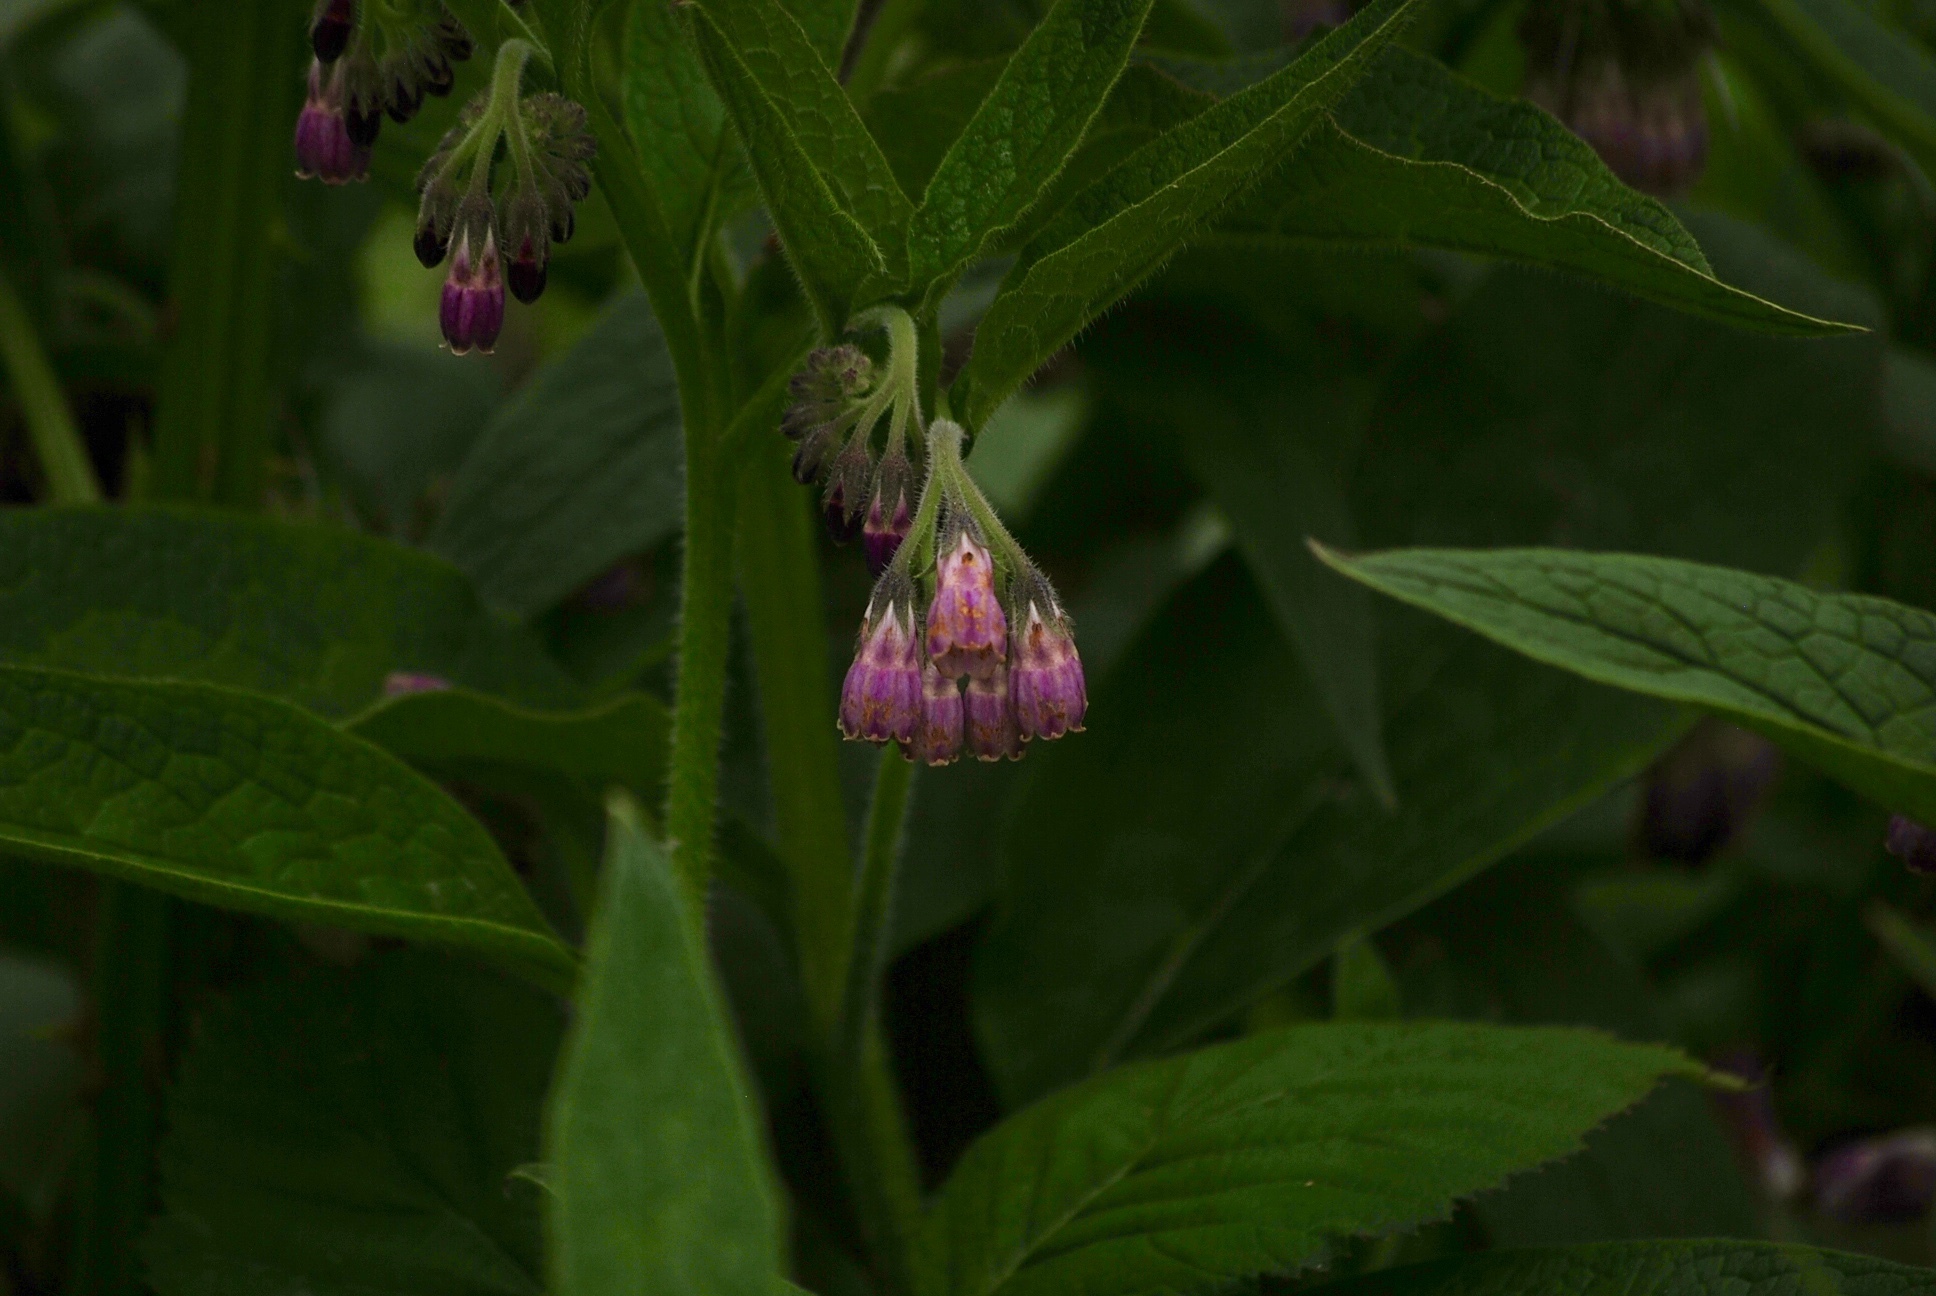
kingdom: Plantae
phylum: Tracheophyta
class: Magnoliopsida
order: Boraginales
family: Boraginaceae
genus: Symphytum
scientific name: Symphytum officinale
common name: Common comfrey
